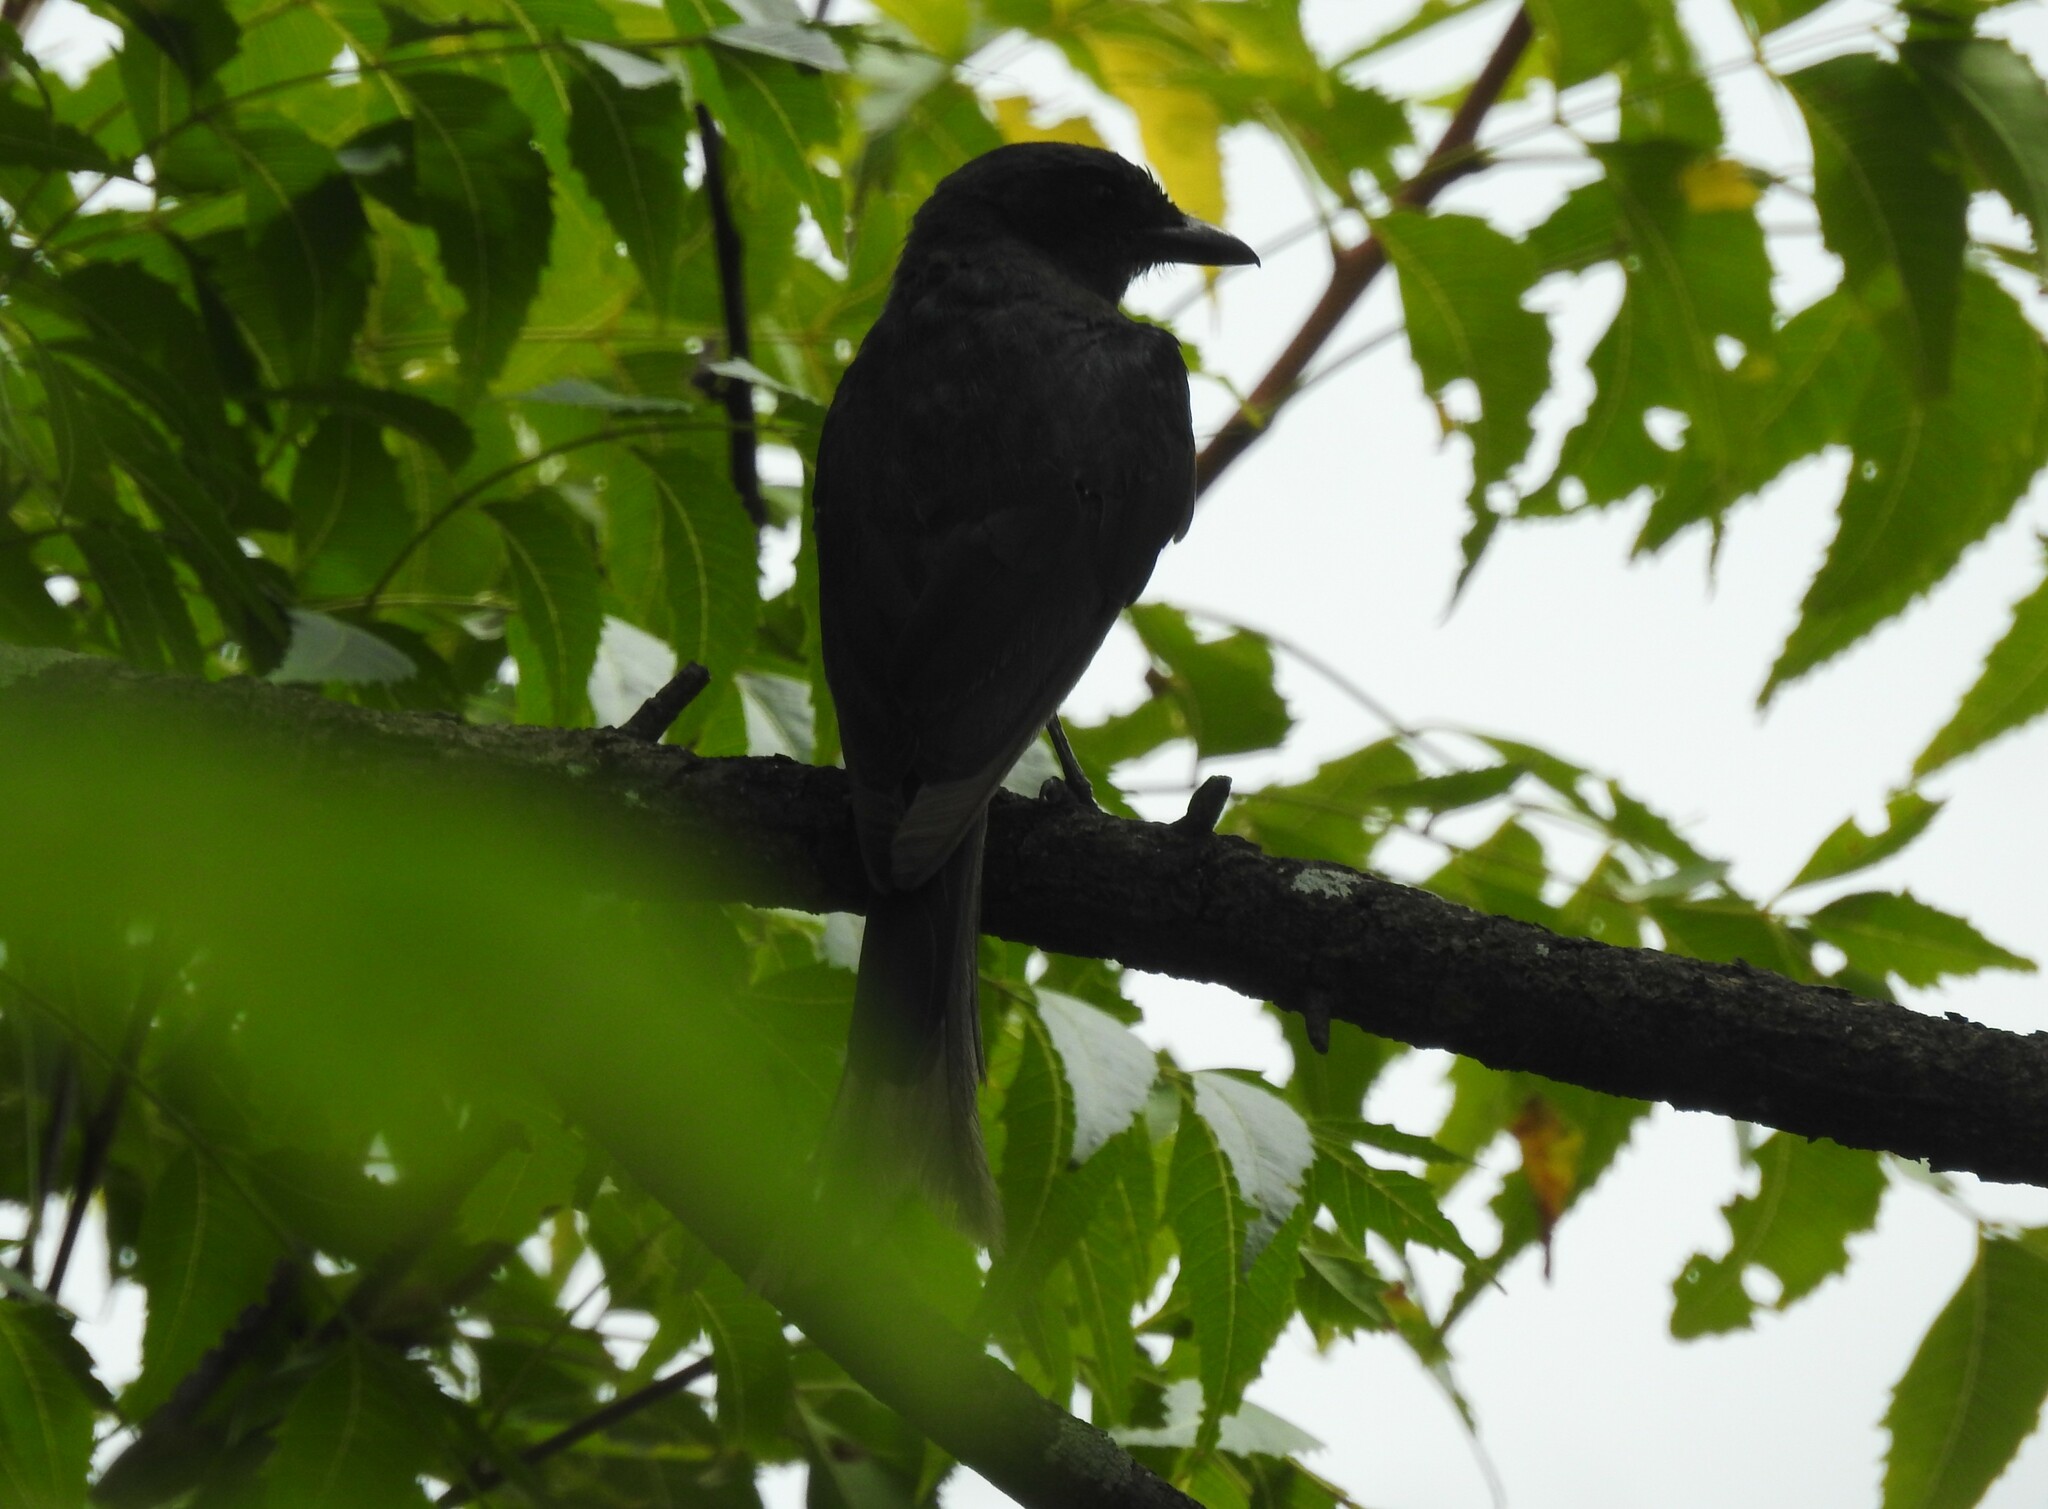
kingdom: Animalia
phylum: Chordata
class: Aves
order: Passeriformes
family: Dicruridae
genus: Dicrurus
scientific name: Dicrurus macrocercus
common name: Black drongo
